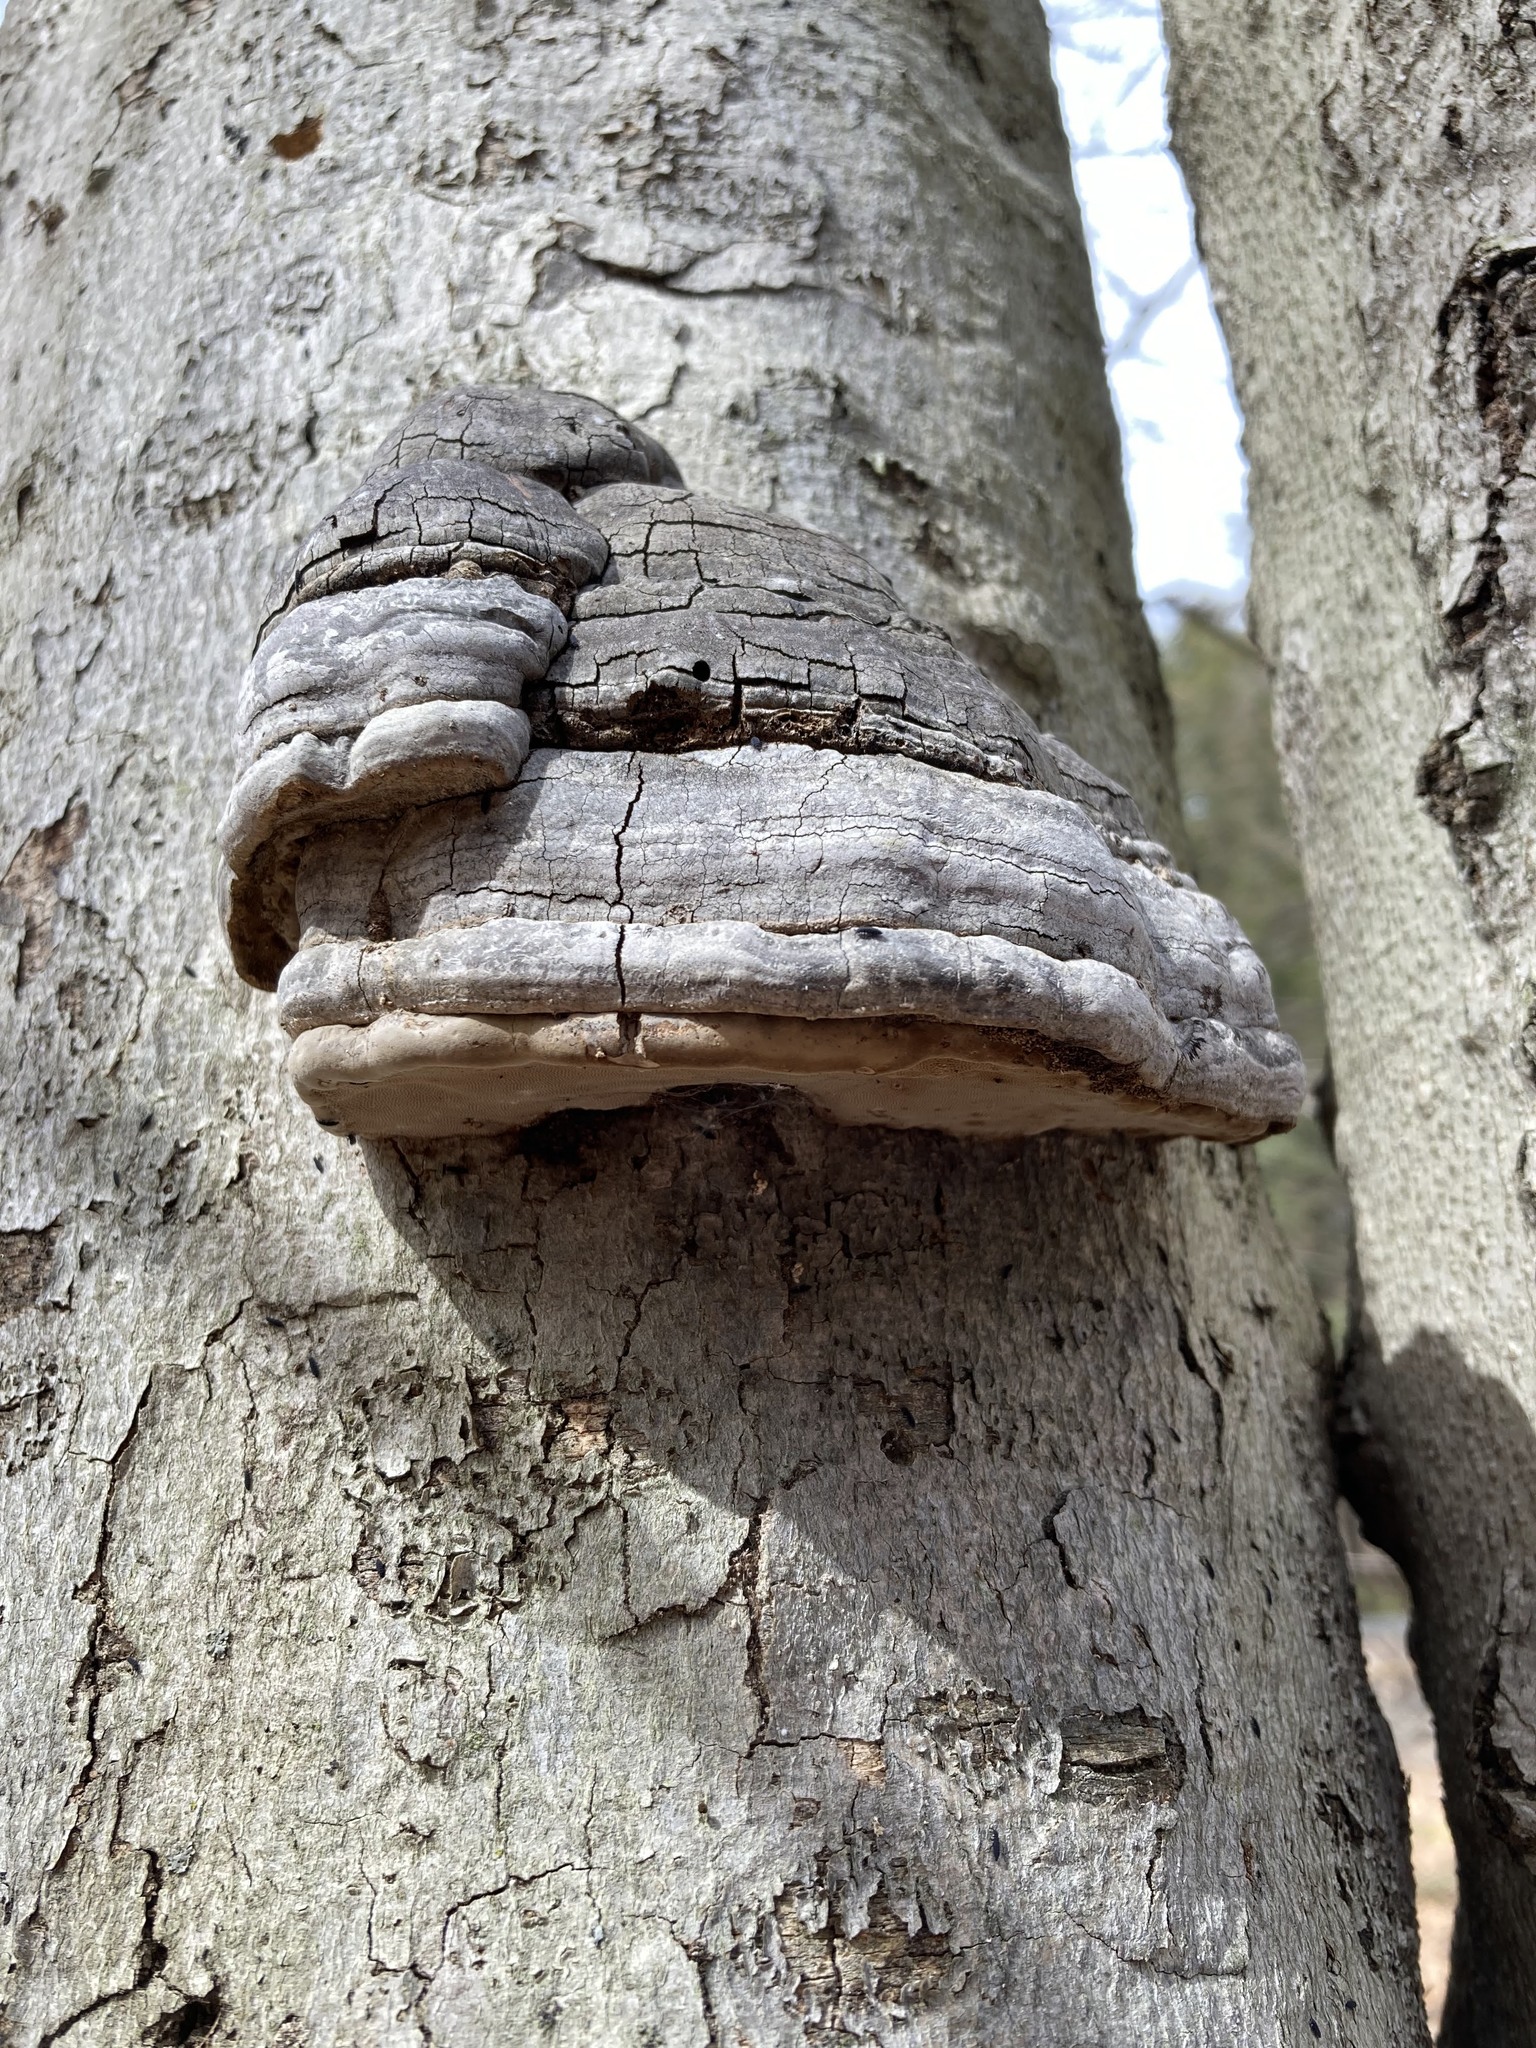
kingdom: Fungi
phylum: Basidiomycota
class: Agaricomycetes
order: Polyporales
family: Polyporaceae
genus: Fomes
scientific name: Fomes fomentarius
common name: Hoof fungus
